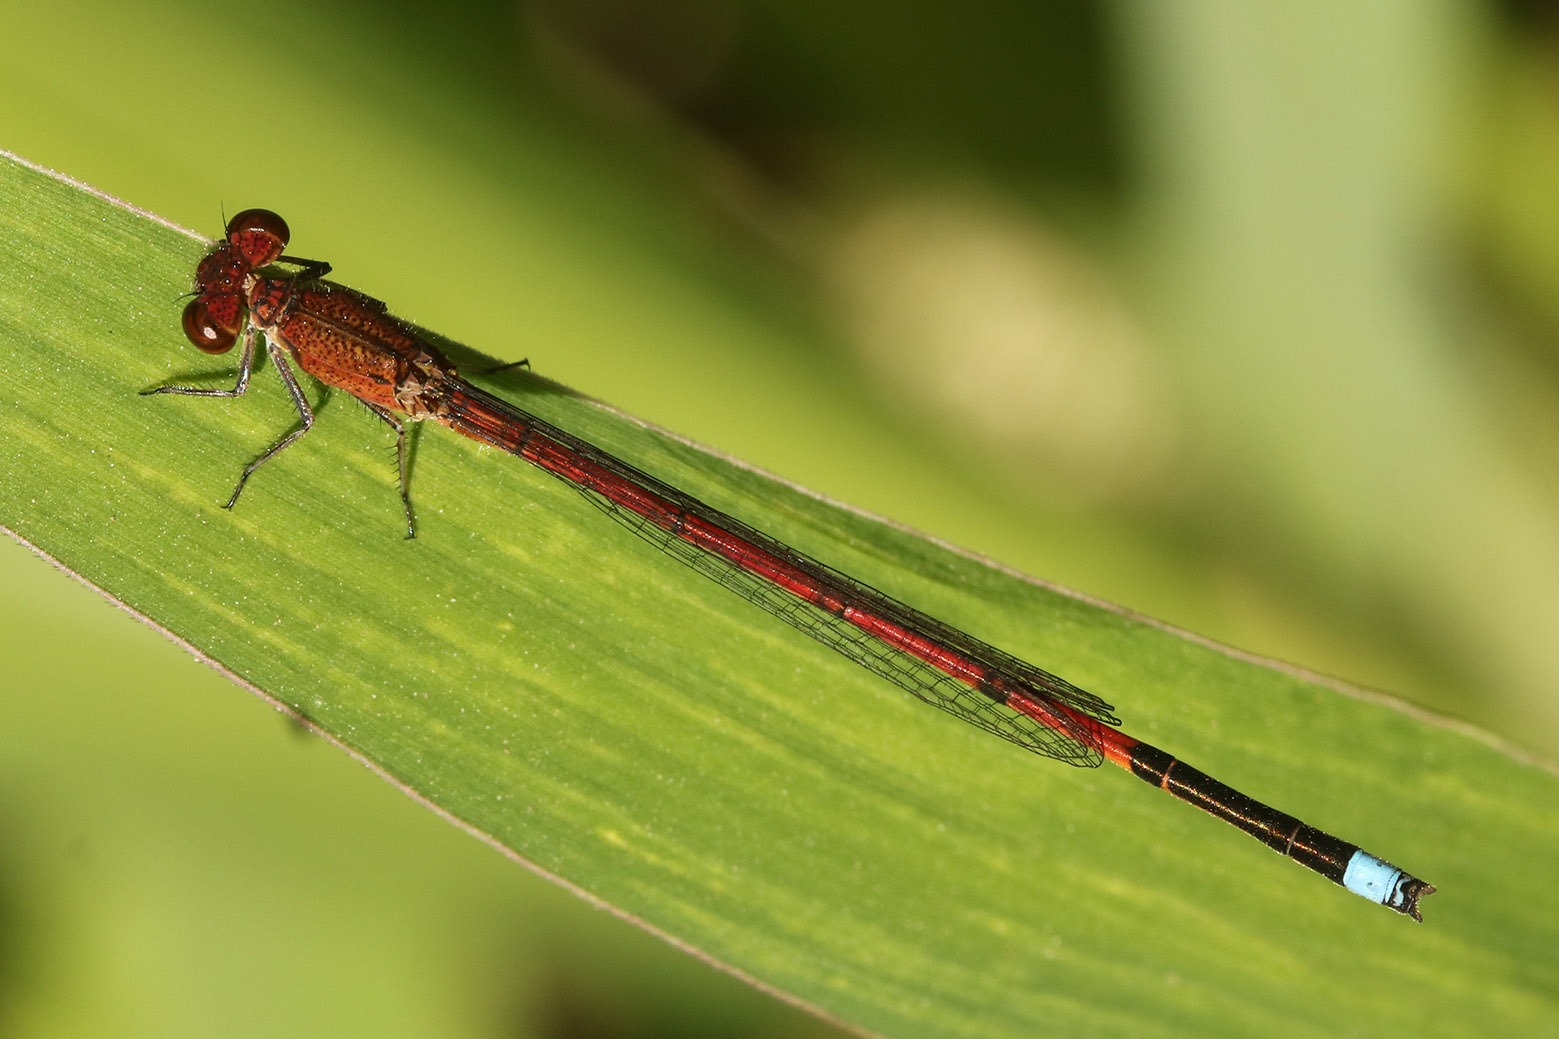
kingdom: Animalia
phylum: Arthropoda
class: Insecta
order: Odonata
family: Coenagrionidae
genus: Oxyagrion
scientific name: Oxyagrion terminale
